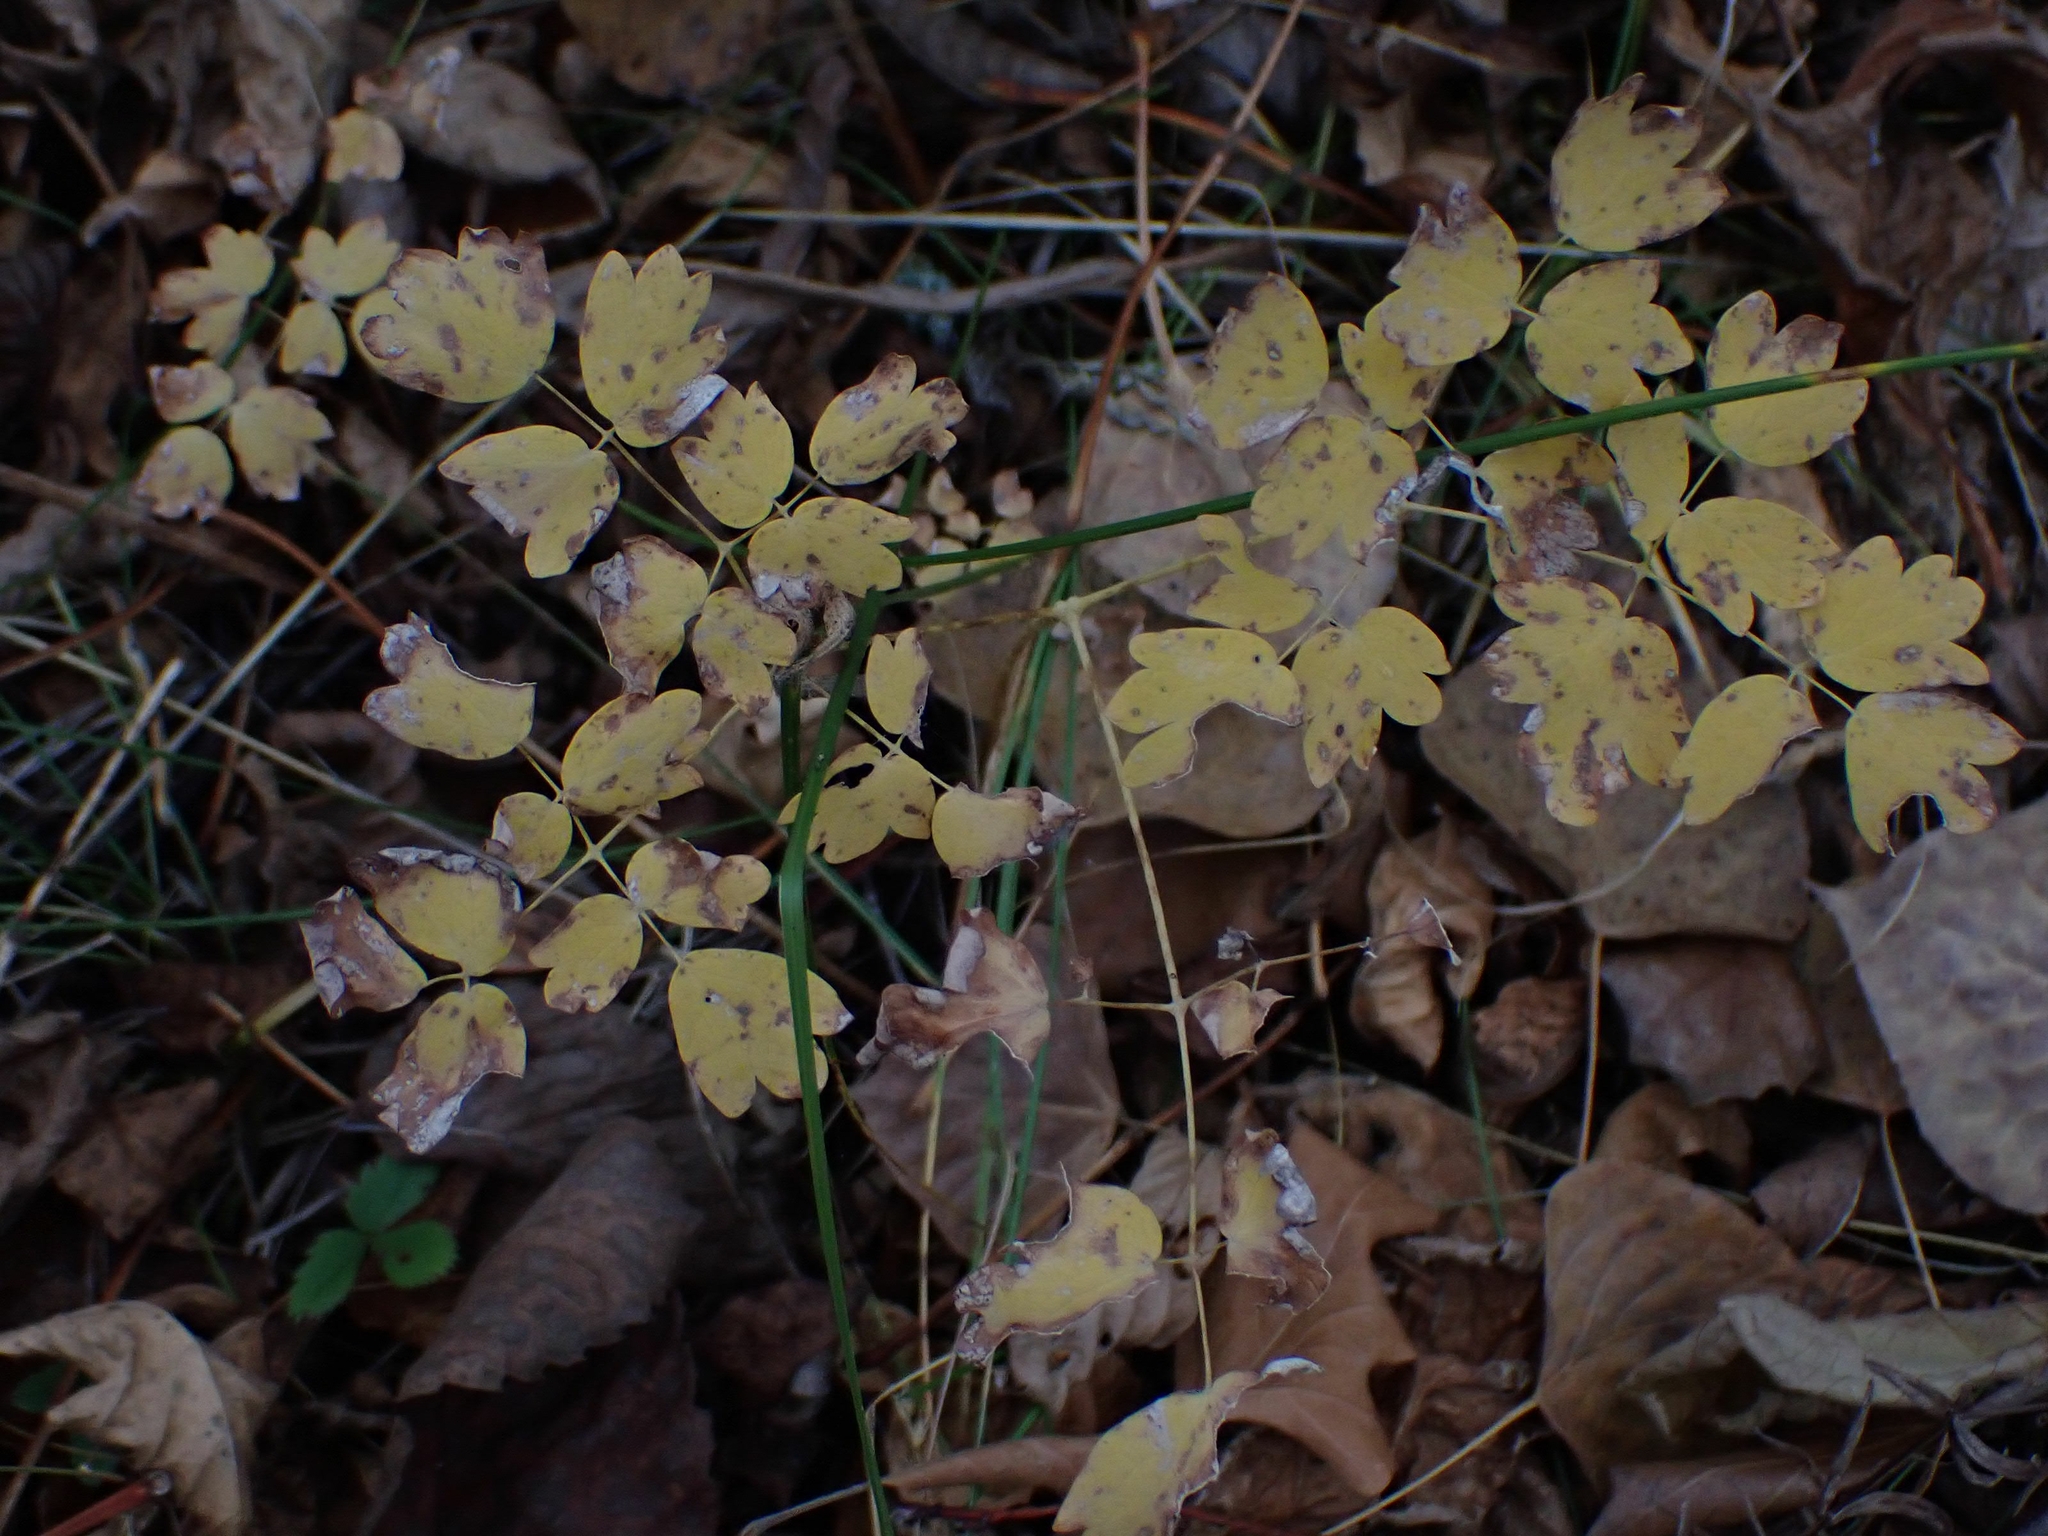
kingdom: Plantae
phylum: Tracheophyta
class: Magnoliopsida
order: Ranunculales
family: Ranunculaceae
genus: Thalictrum
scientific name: Thalictrum venulosum
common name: Early meadow-rue
